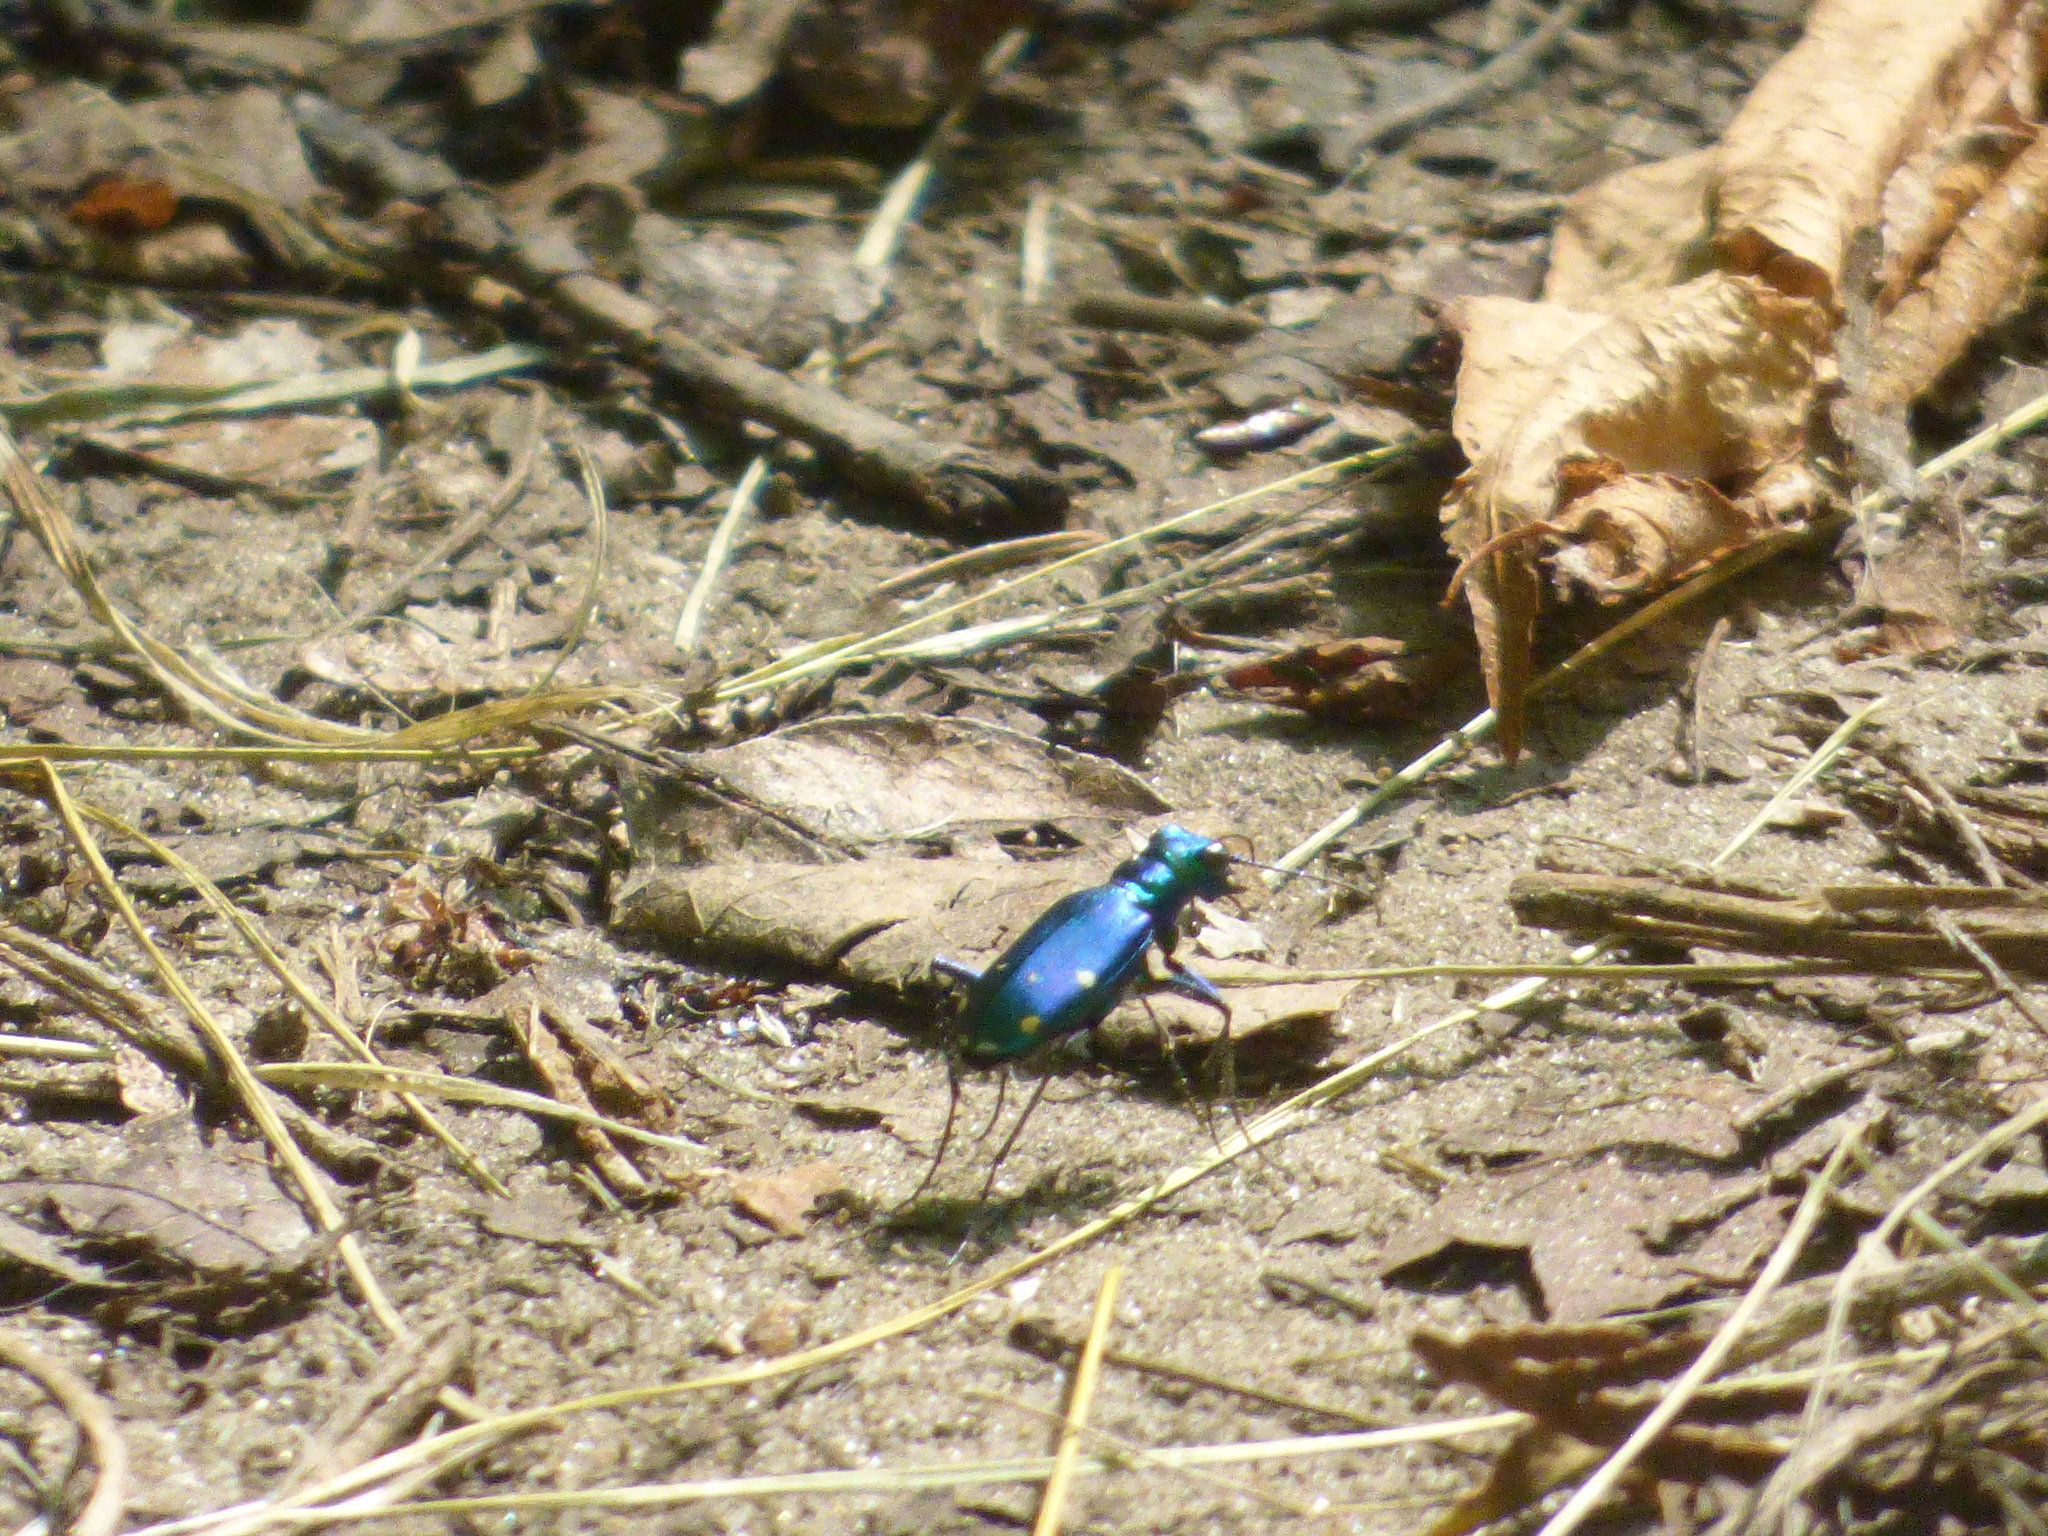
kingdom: Animalia
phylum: Arthropoda
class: Insecta
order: Coleoptera
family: Carabidae
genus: Cicindela
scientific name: Cicindela sexguttata
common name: Six-spotted tiger beetle
